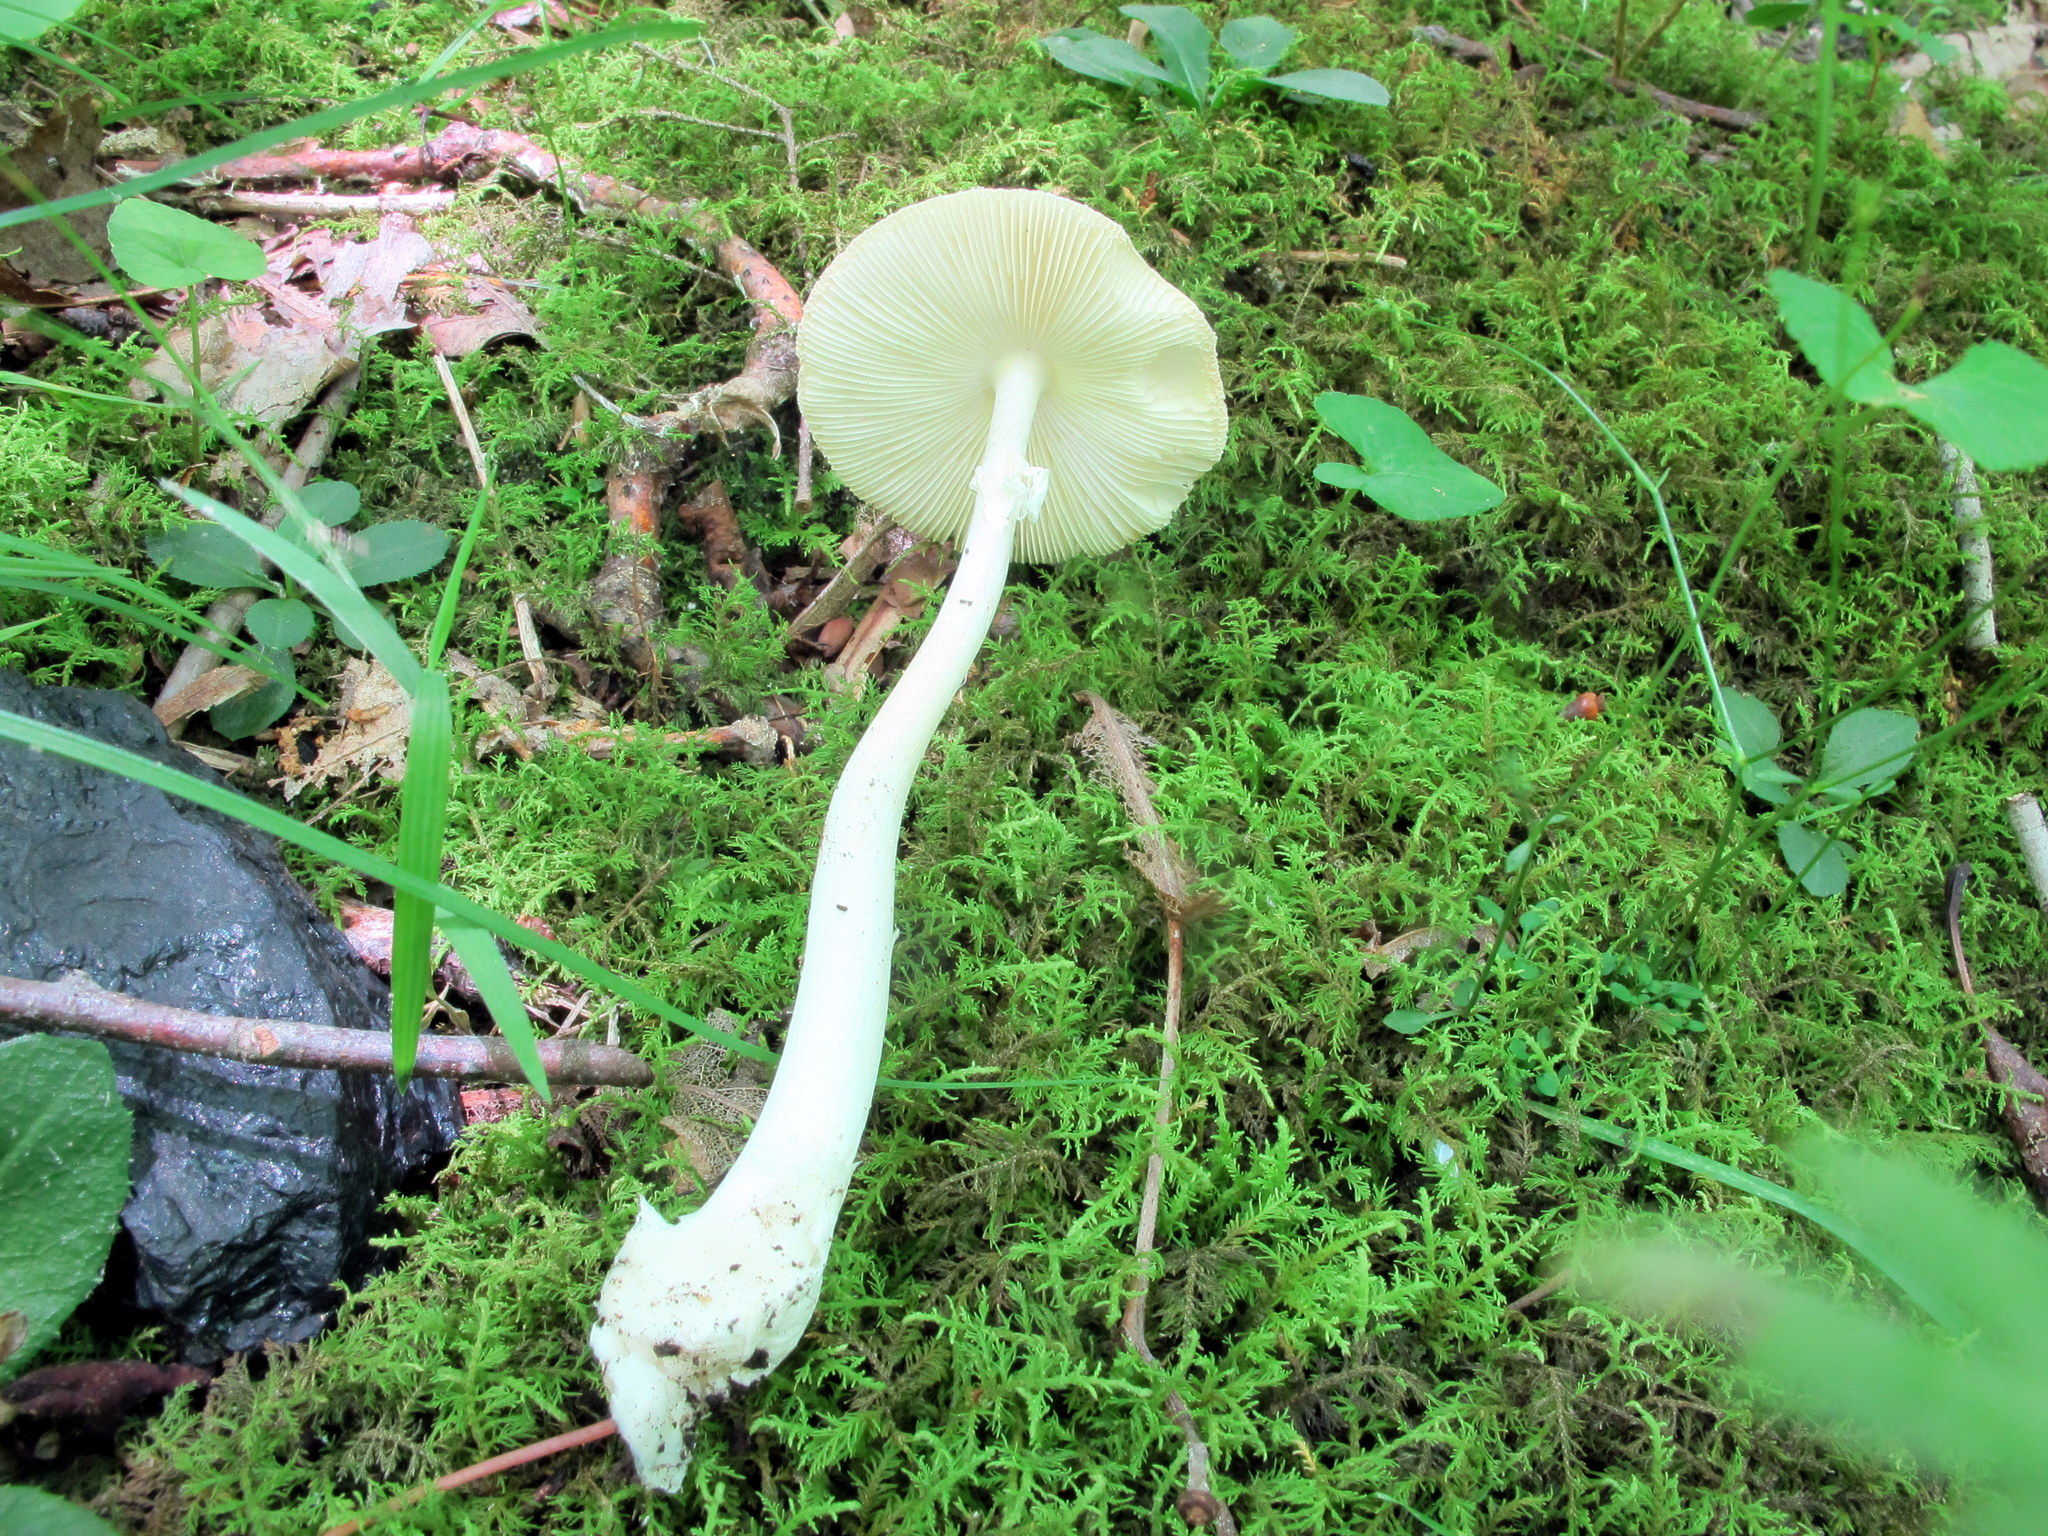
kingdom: Fungi
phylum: Basidiomycota
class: Agaricomycetes
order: Agaricales
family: Amanitaceae
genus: Amanita
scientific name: Amanita bisporigera
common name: Eastern north american destroying angel
